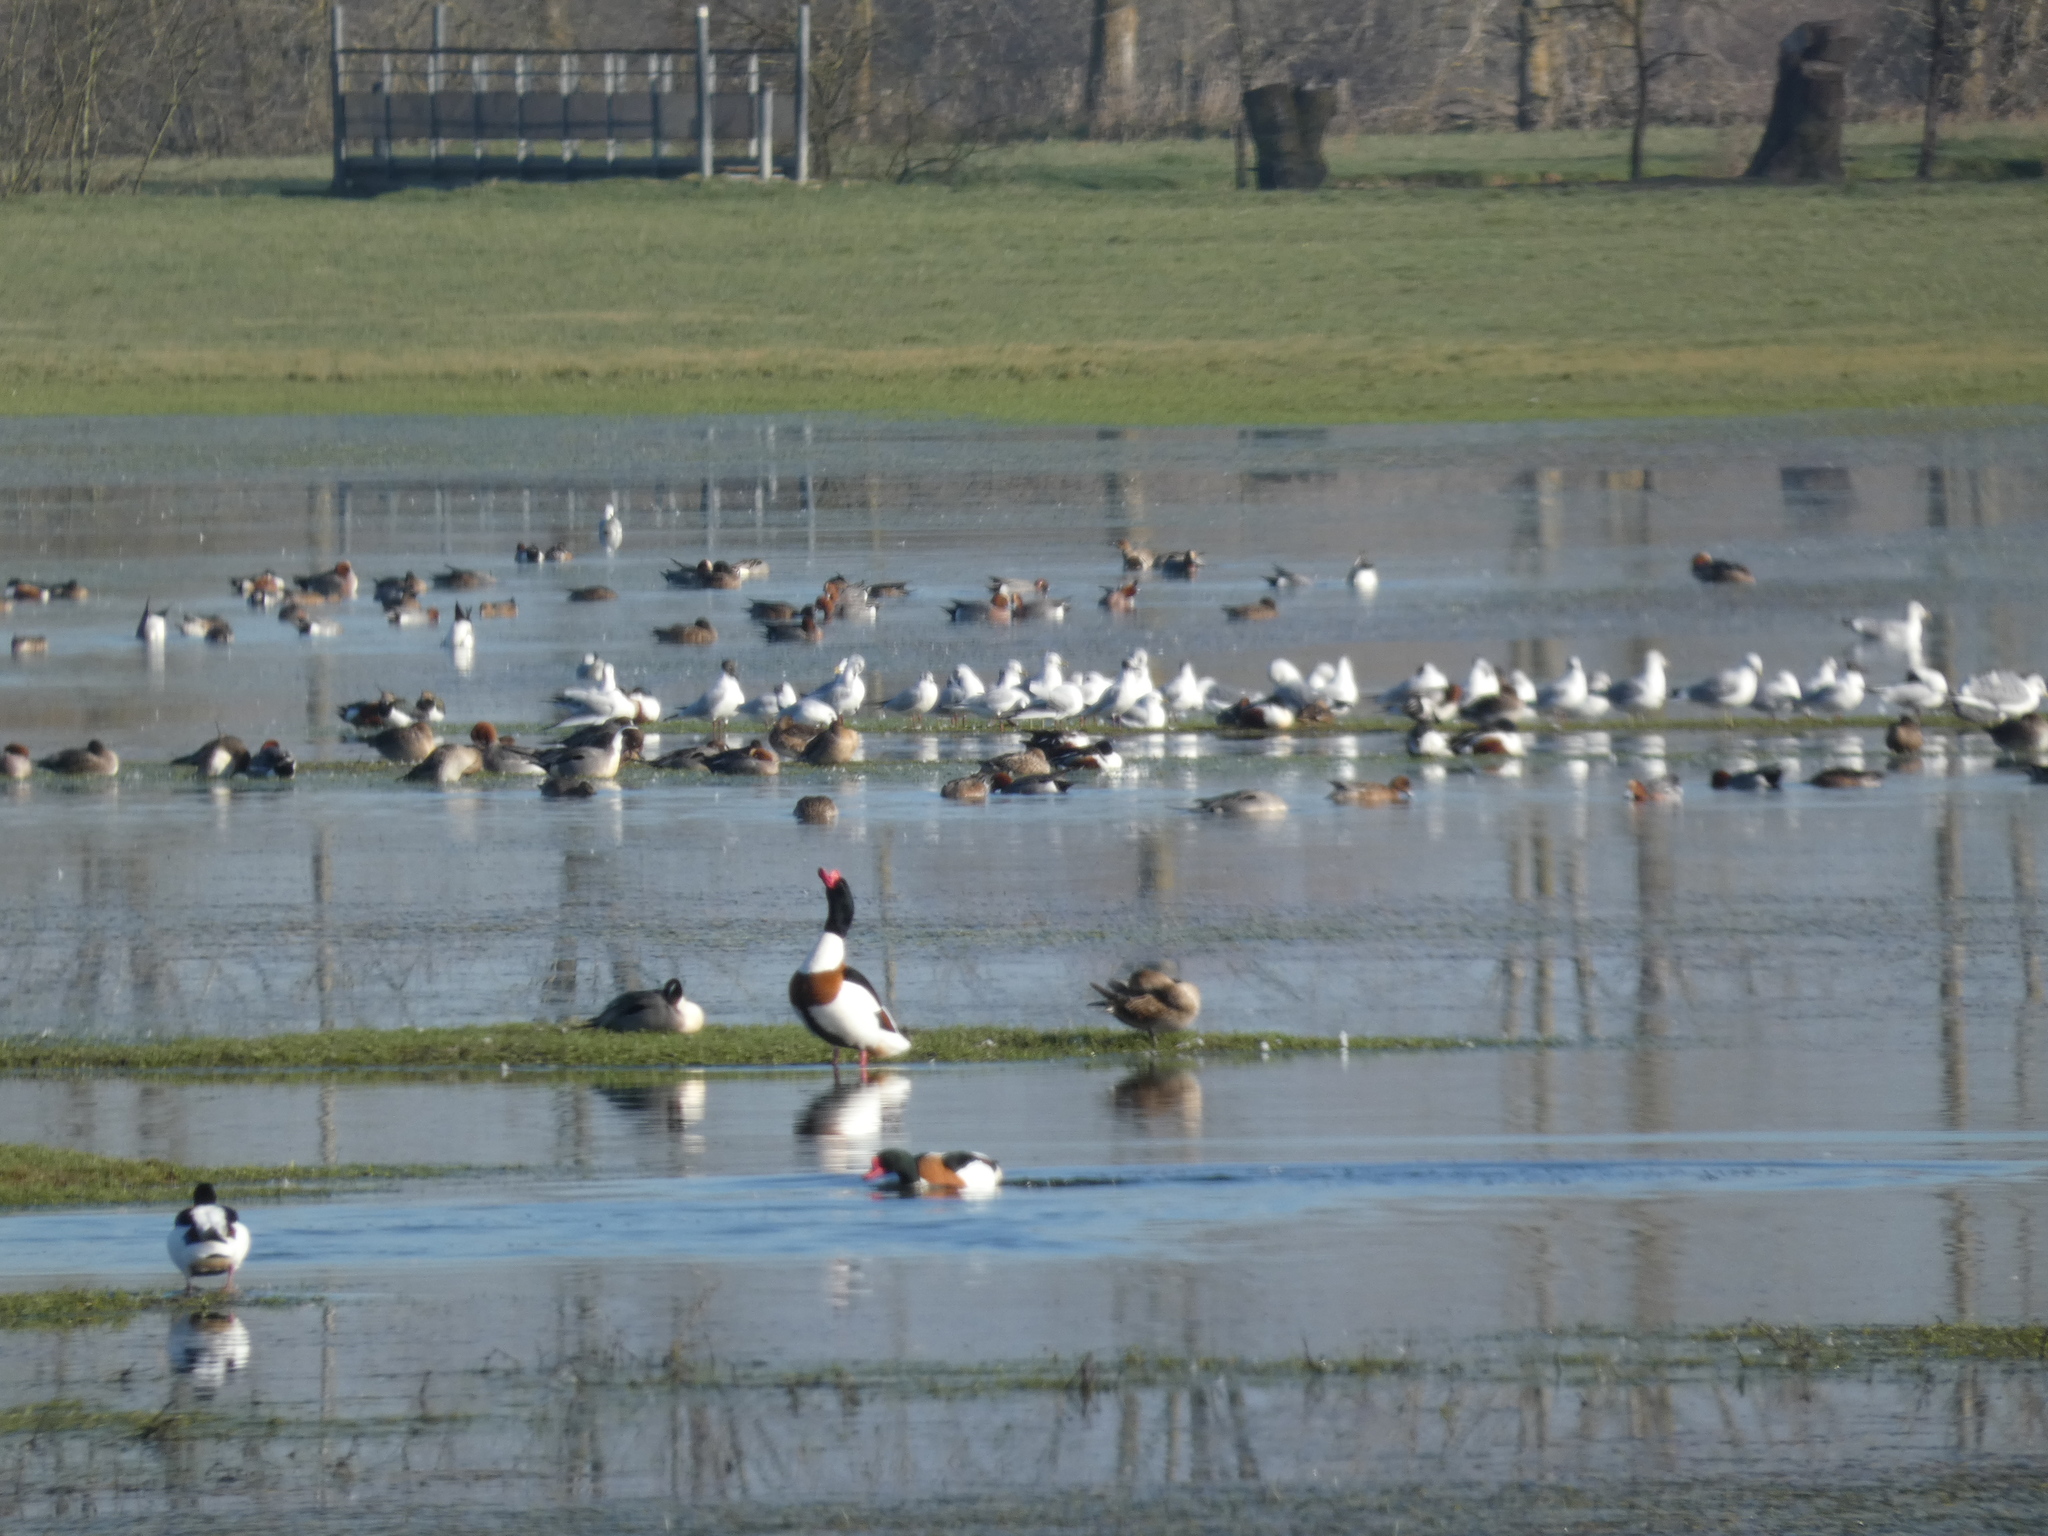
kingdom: Animalia
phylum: Chordata
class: Aves
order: Charadriiformes
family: Charadriidae
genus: Vanellus
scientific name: Vanellus vanellus
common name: Northern lapwing
